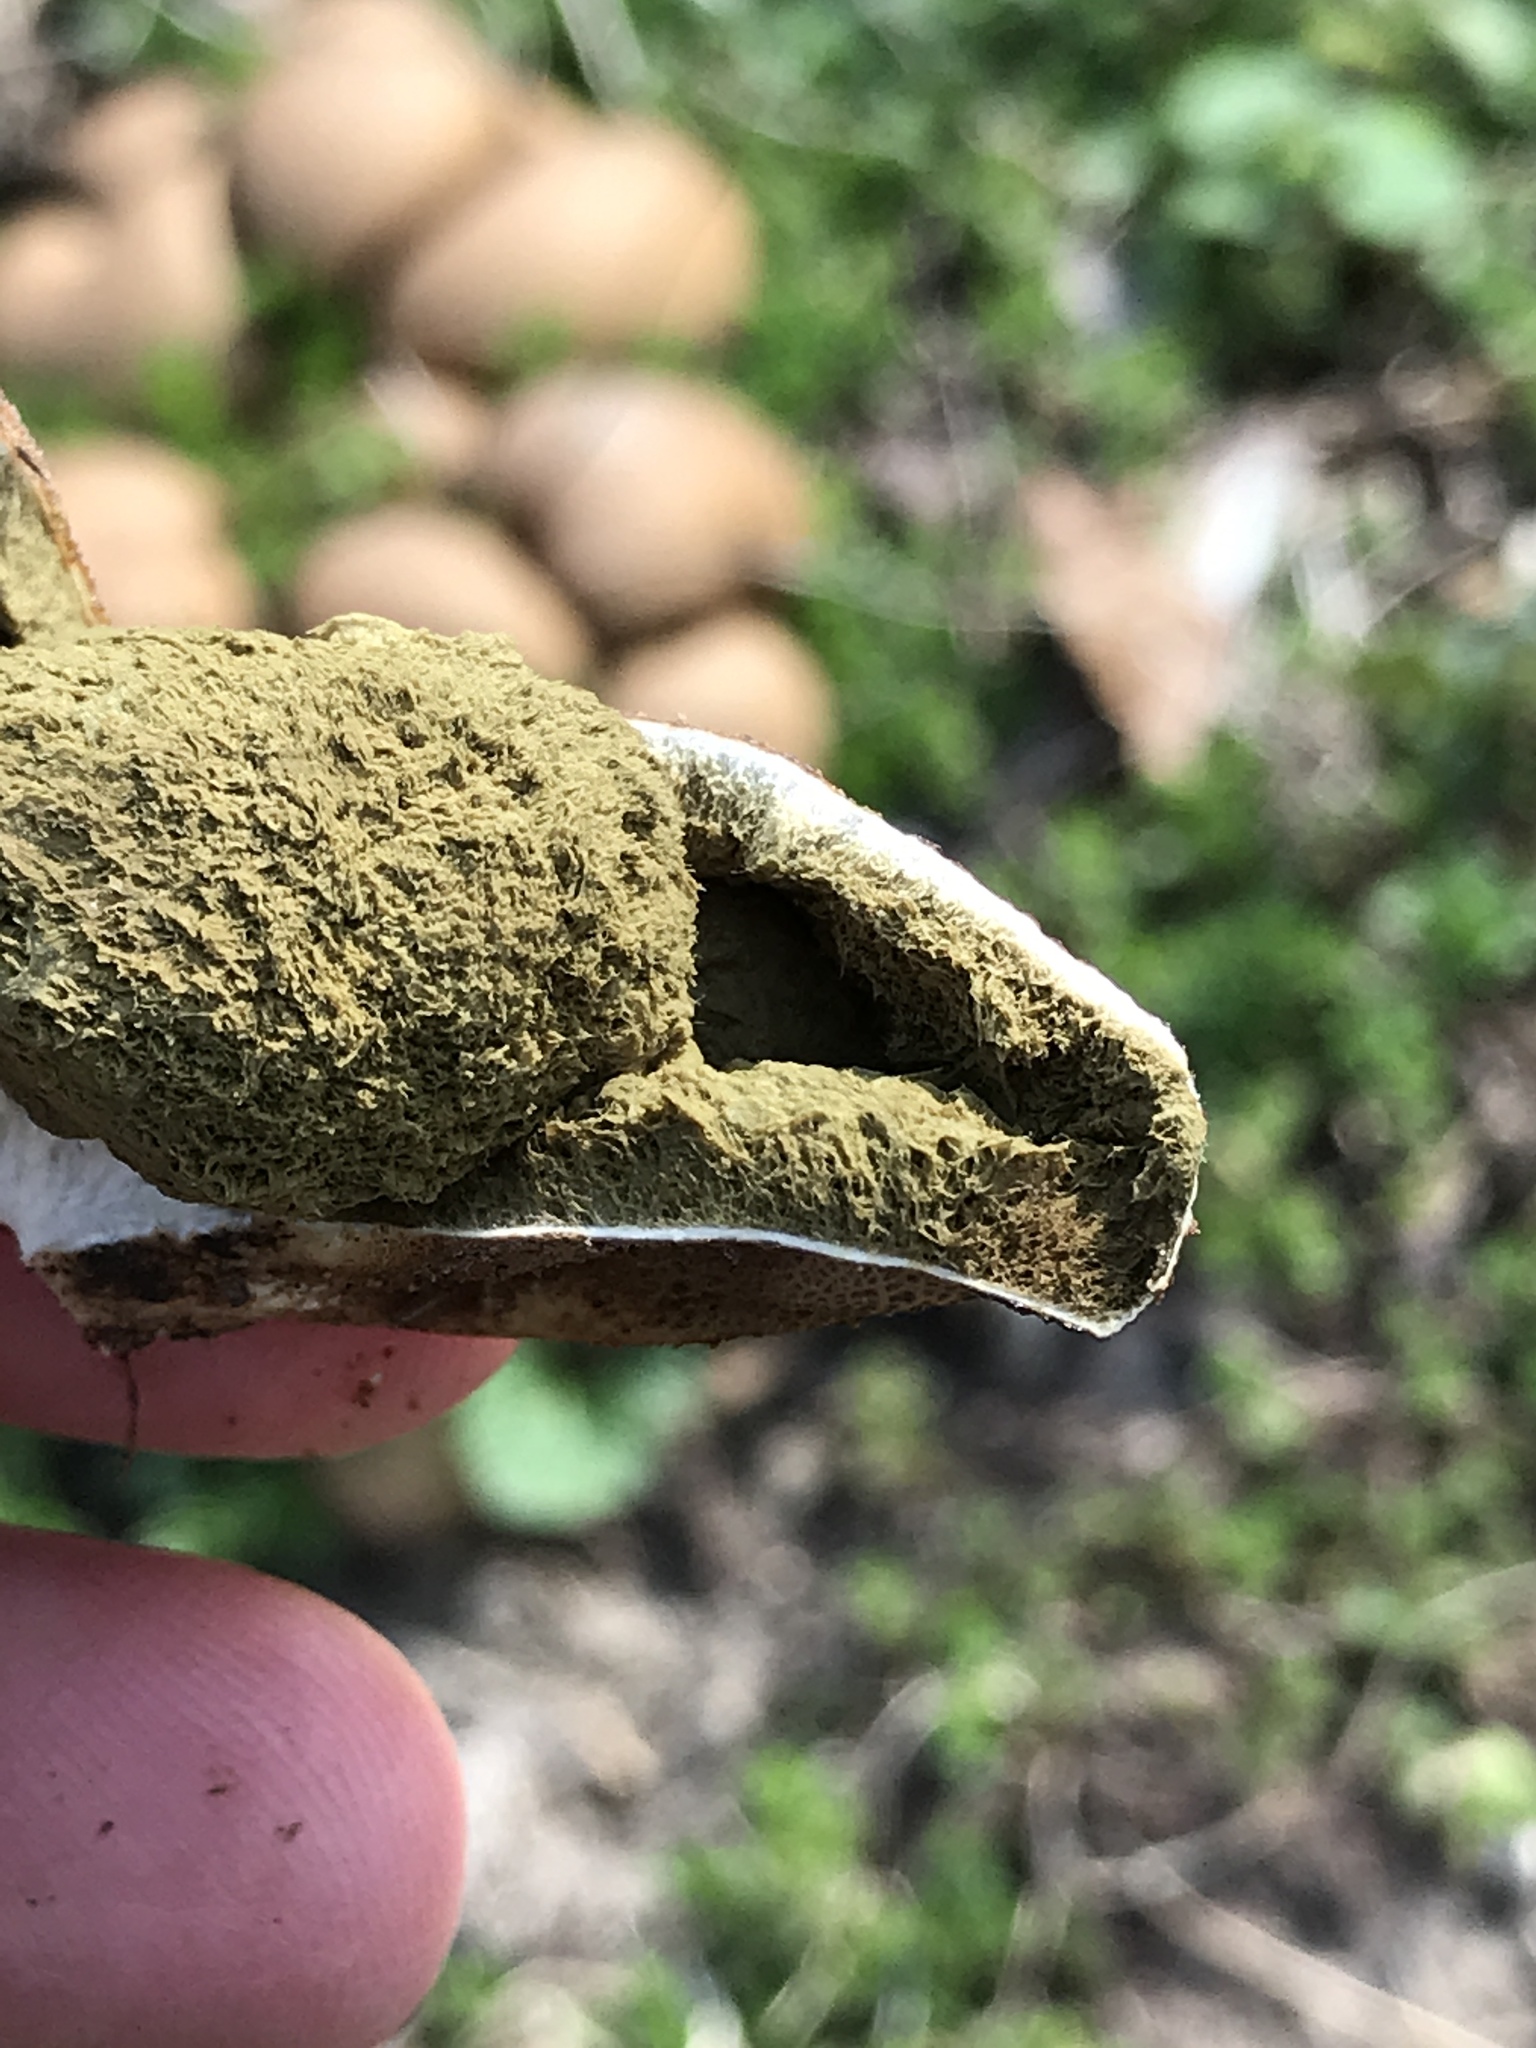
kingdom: Fungi
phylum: Basidiomycota
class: Agaricomycetes
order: Agaricales
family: Lycoperdaceae
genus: Apioperdon
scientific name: Apioperdon pyriforme
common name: Pear-shaped puffball
